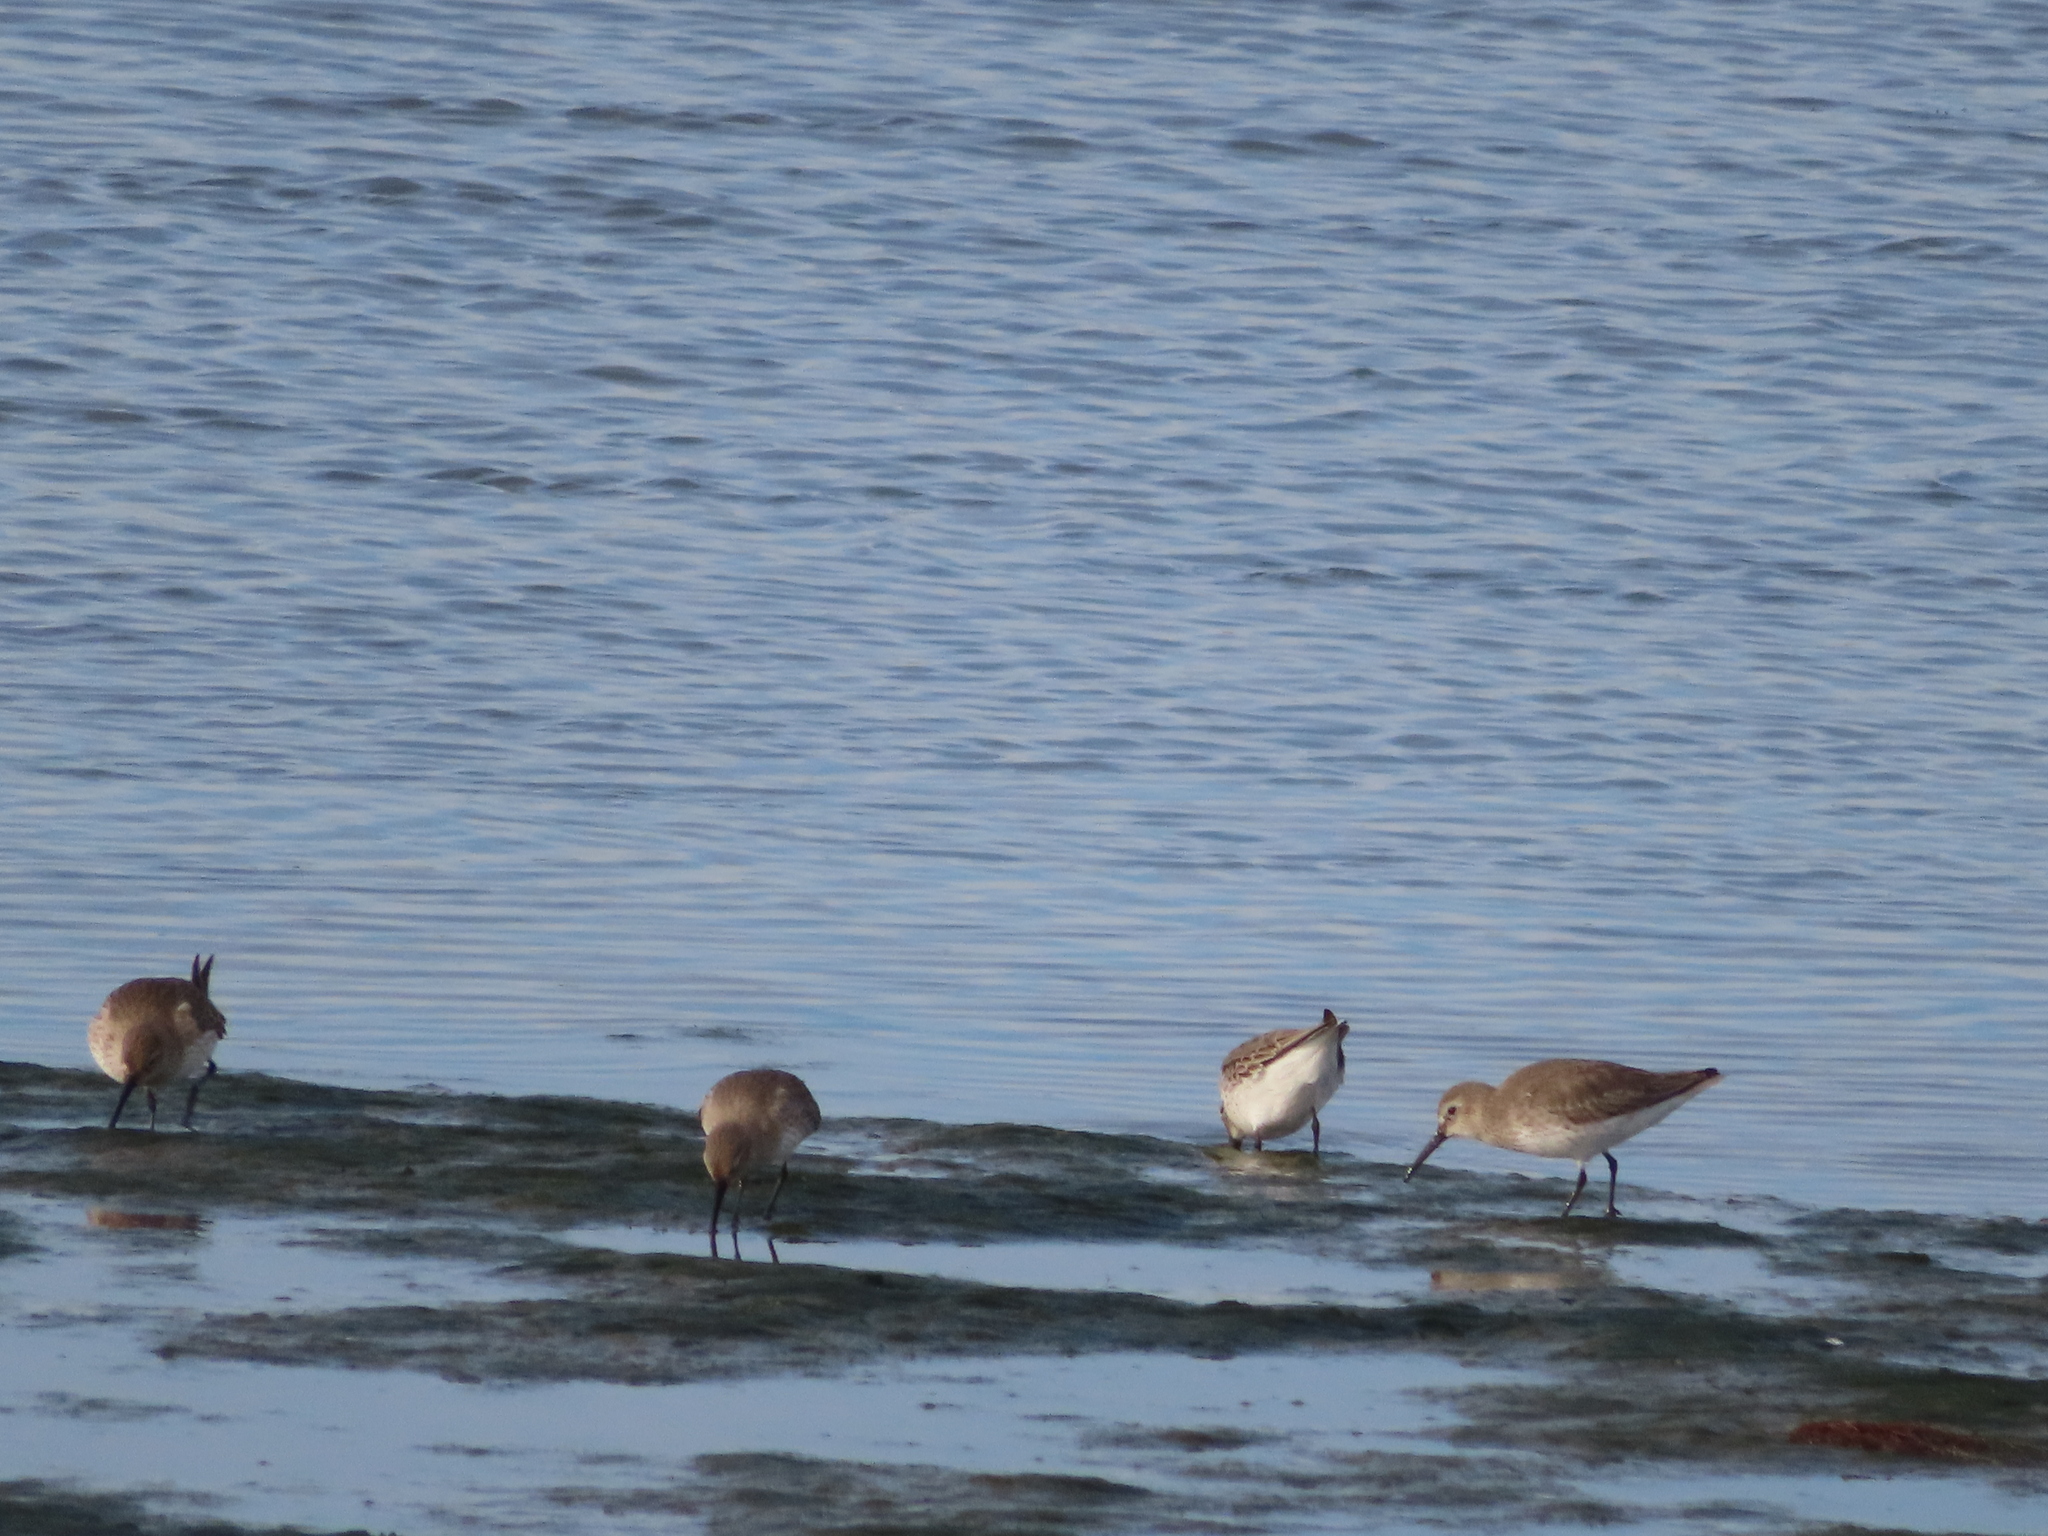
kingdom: Animalia
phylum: Chordata
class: Aves
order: Charadriiformes
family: Scolopacidae
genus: Calidris
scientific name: Calidris alpina
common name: Dunlin
